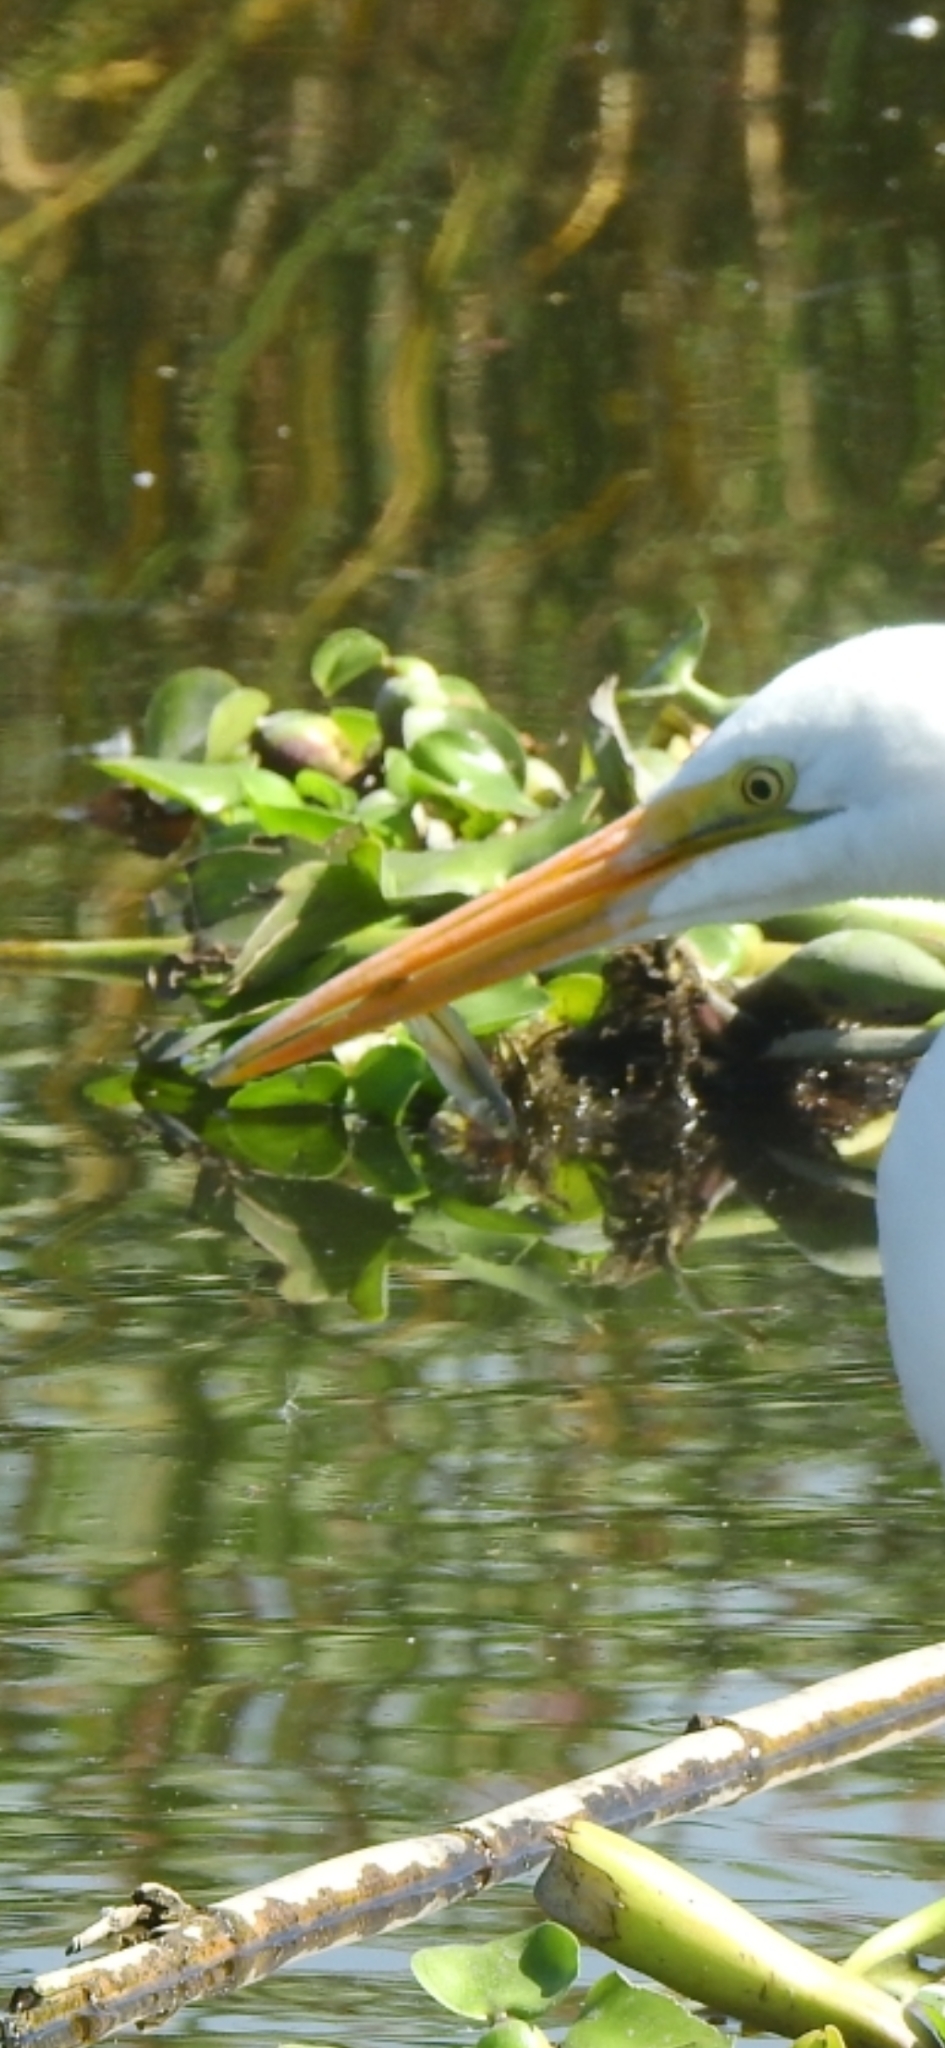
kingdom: Animalia
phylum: Chordata
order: Atheriniformes
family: Atherinopsidae
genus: Chirostoma
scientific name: Chirostoma jordani
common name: Mesa silverside
